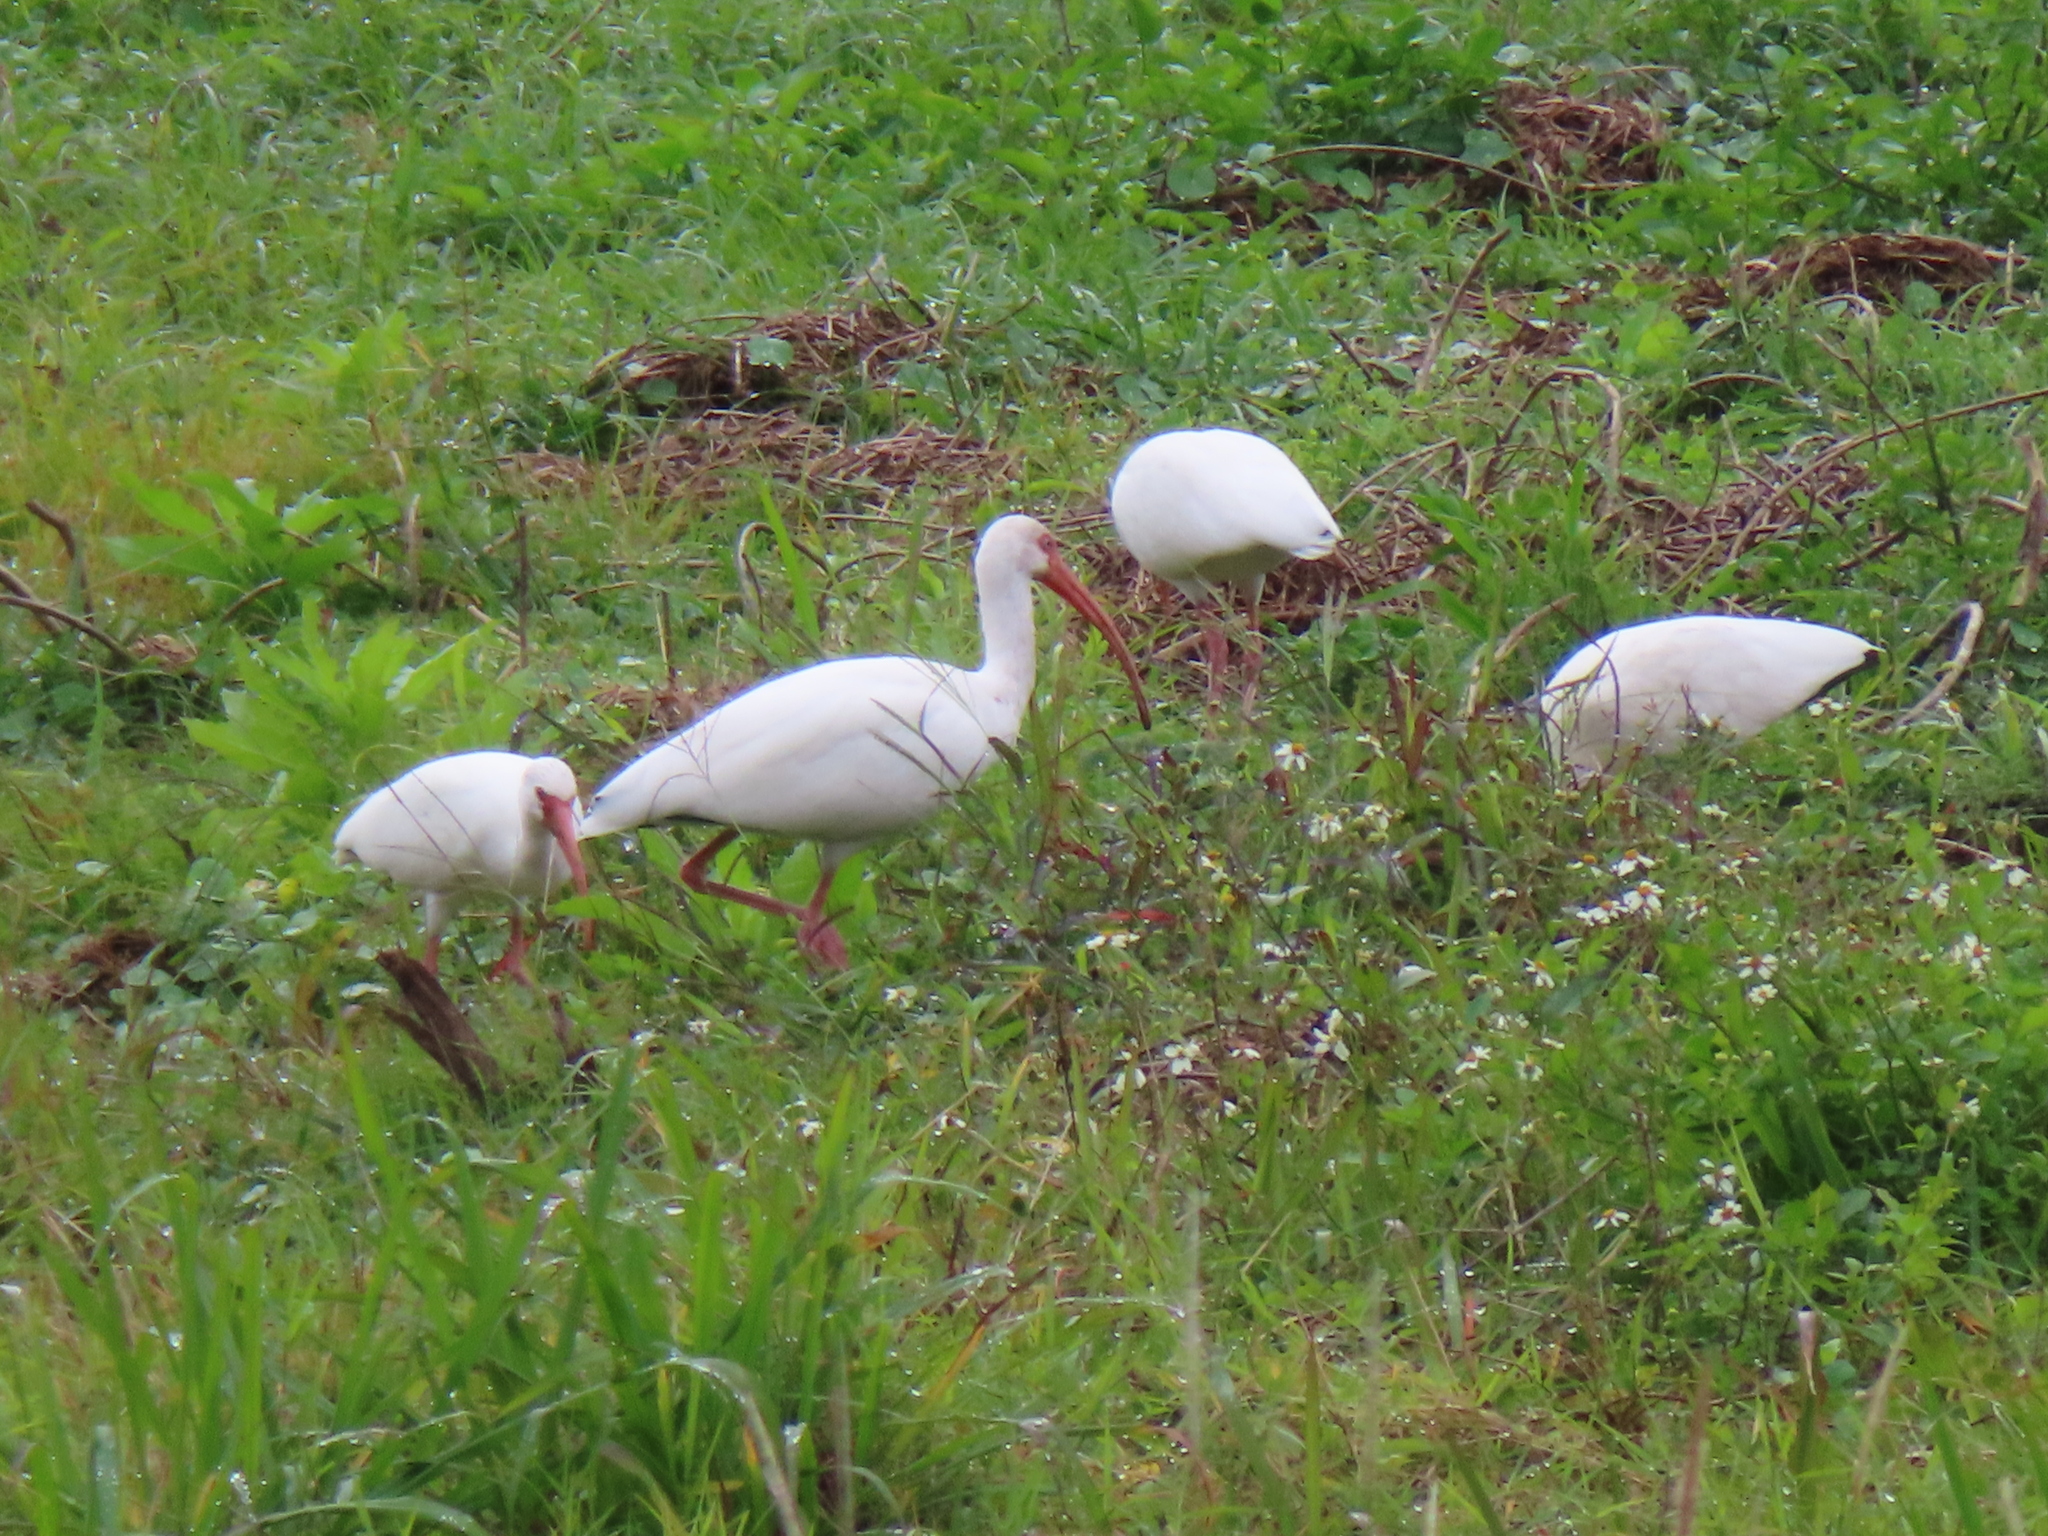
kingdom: Animalia
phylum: Chordata
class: Aves
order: Pelecaniformes
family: Threskiornithidae
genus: Eudocimus
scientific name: Eudocimus albus
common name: White ibis
